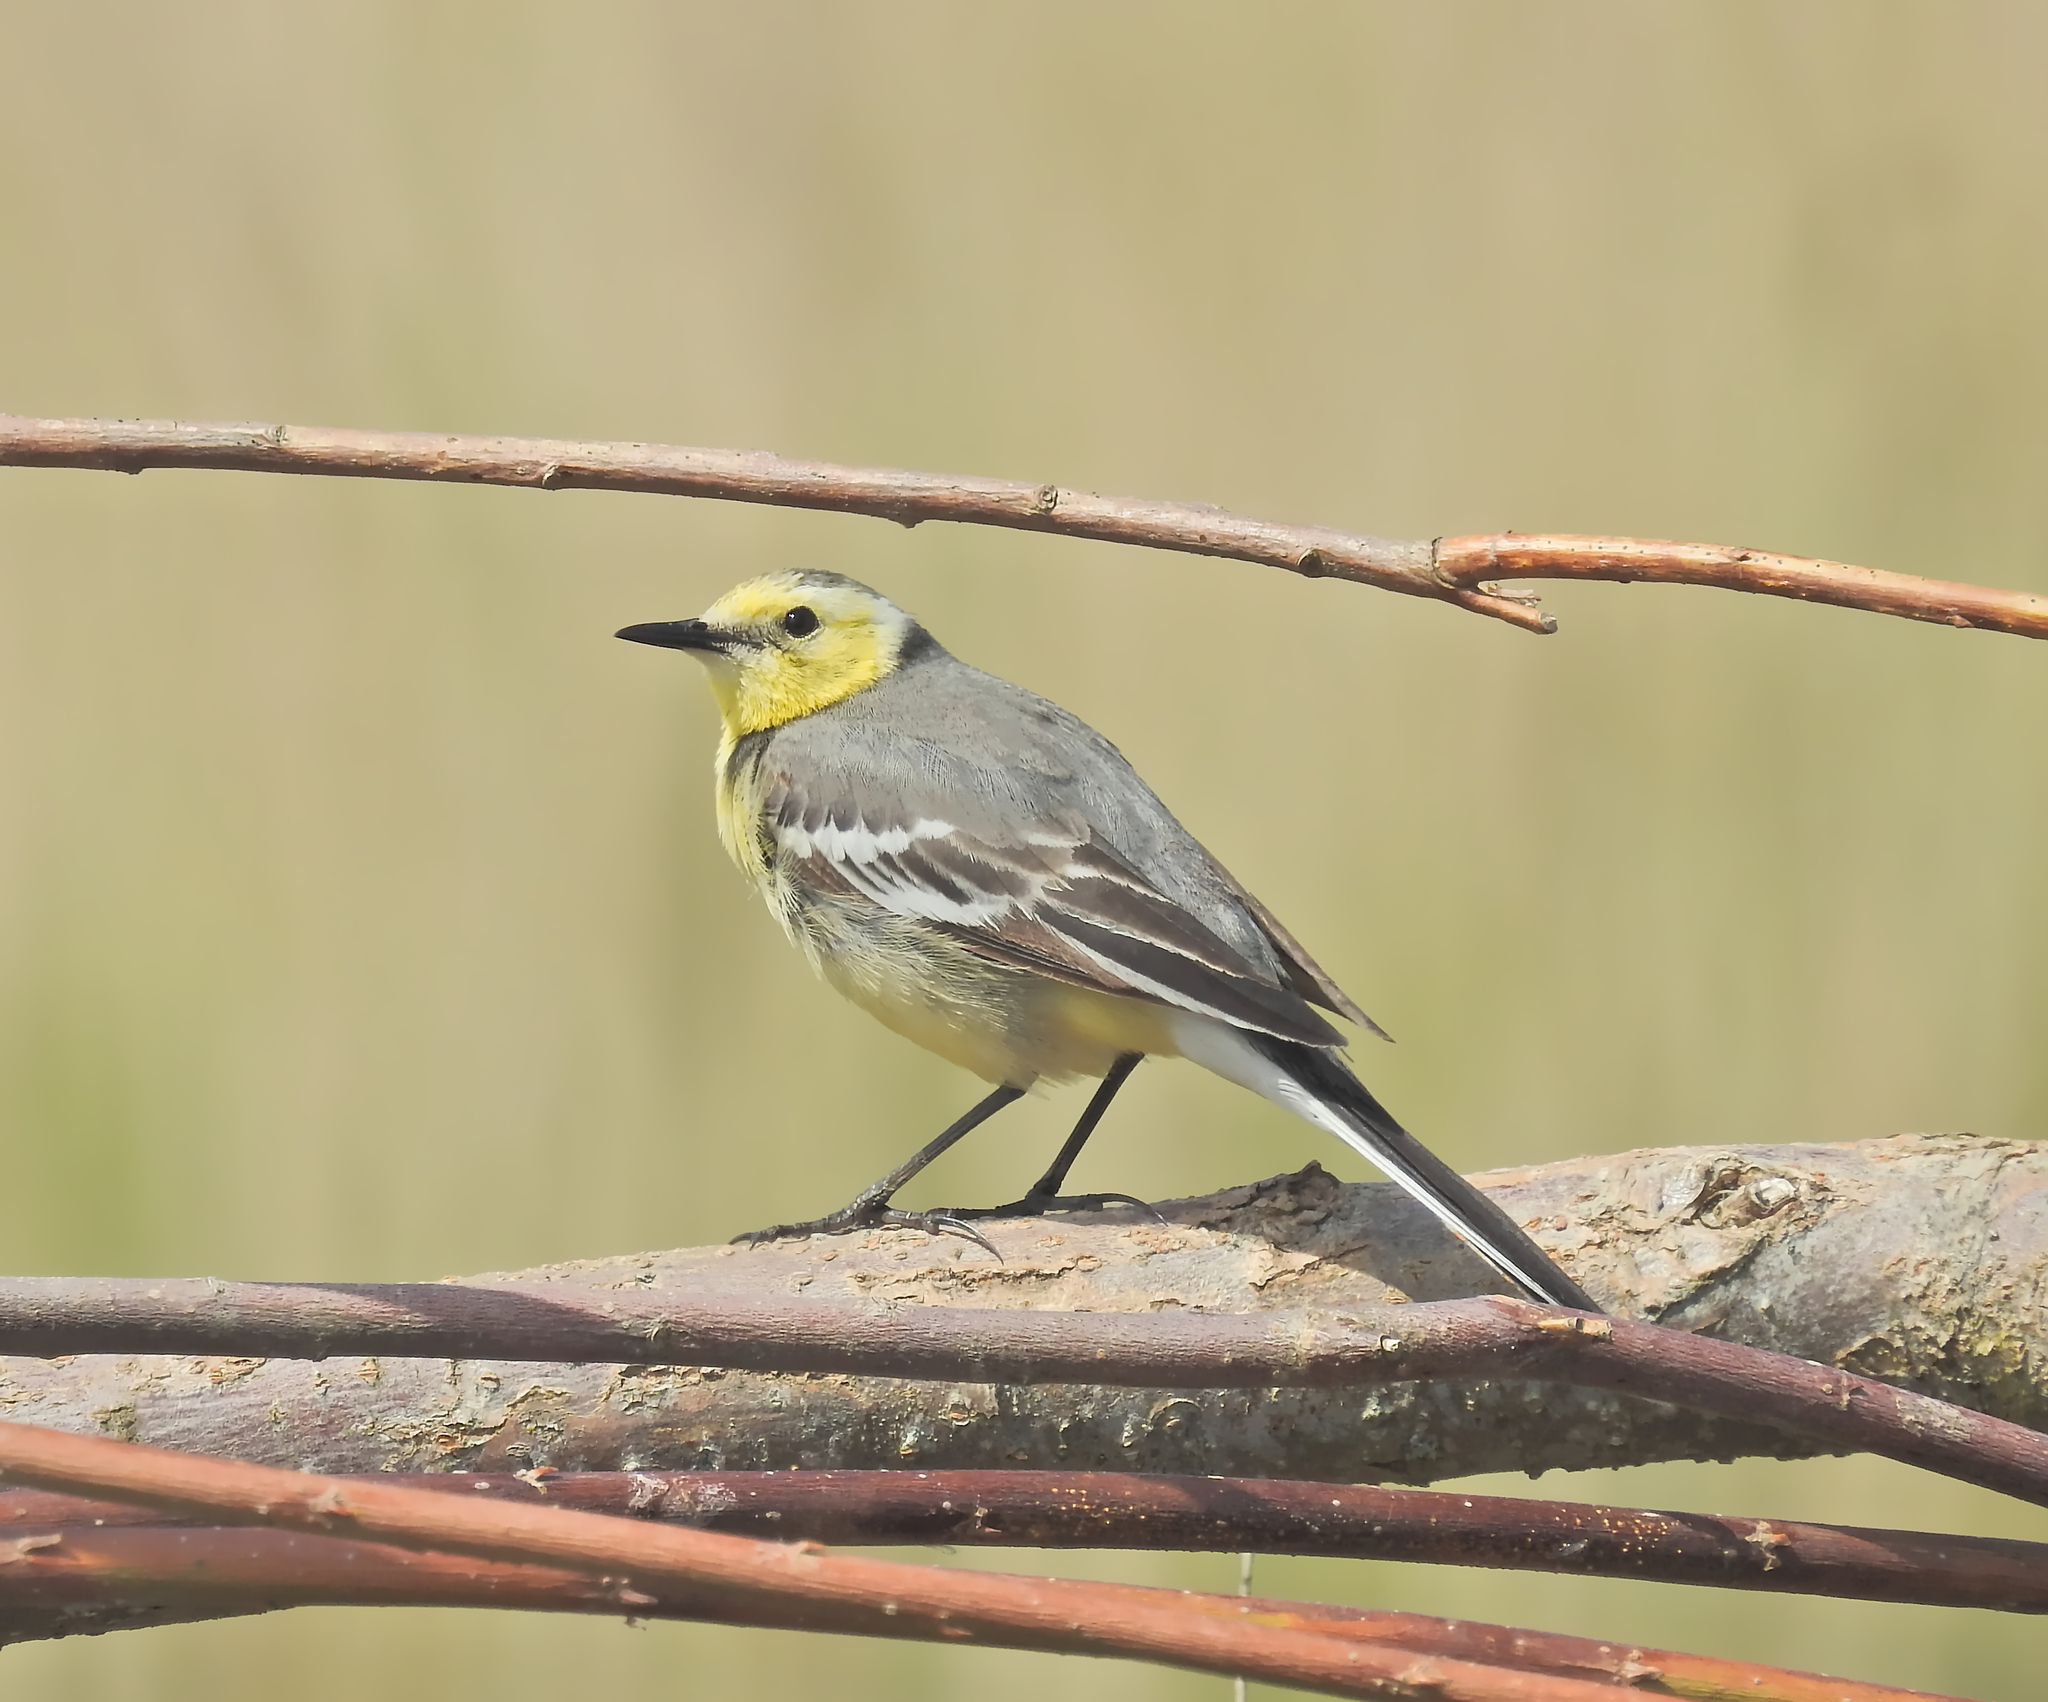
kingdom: Animalia
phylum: Chordata
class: Aves
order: Passeriformes
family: Motacillidae
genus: Motacilla
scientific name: Motacilla citreola
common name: Citrine wagtail
